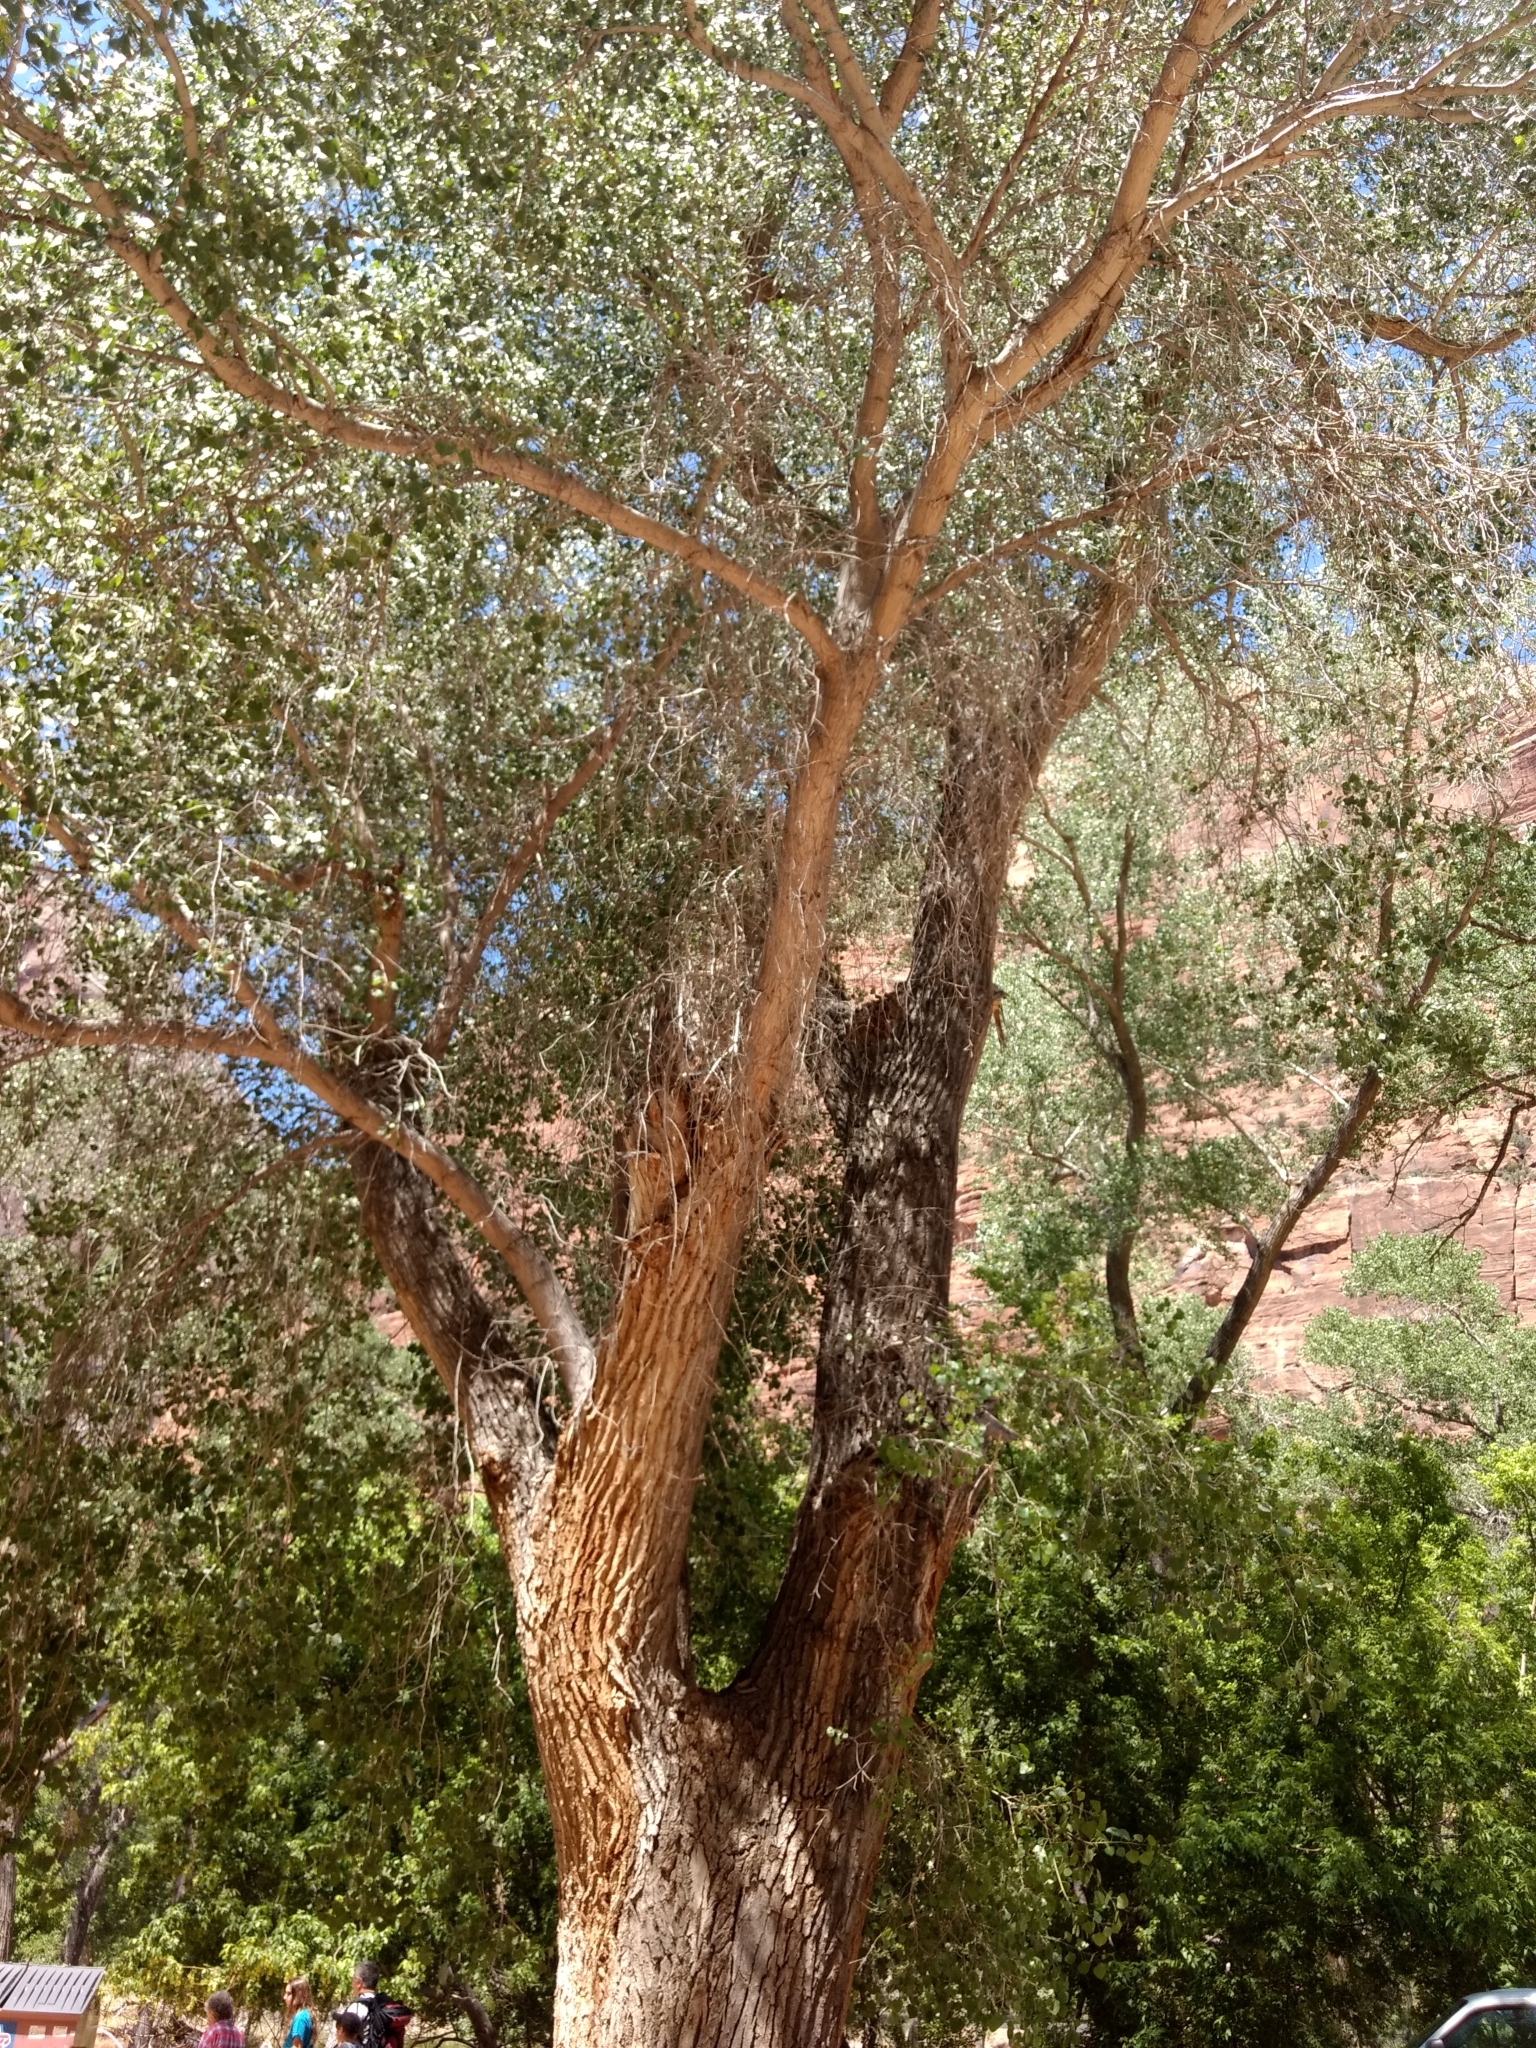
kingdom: Plantae
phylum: Tracheophyta
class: Magnoliopsida
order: Malpighiales
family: Salicaceae
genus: Populus
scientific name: Populus fremontii
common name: Fremont's cottonwood
